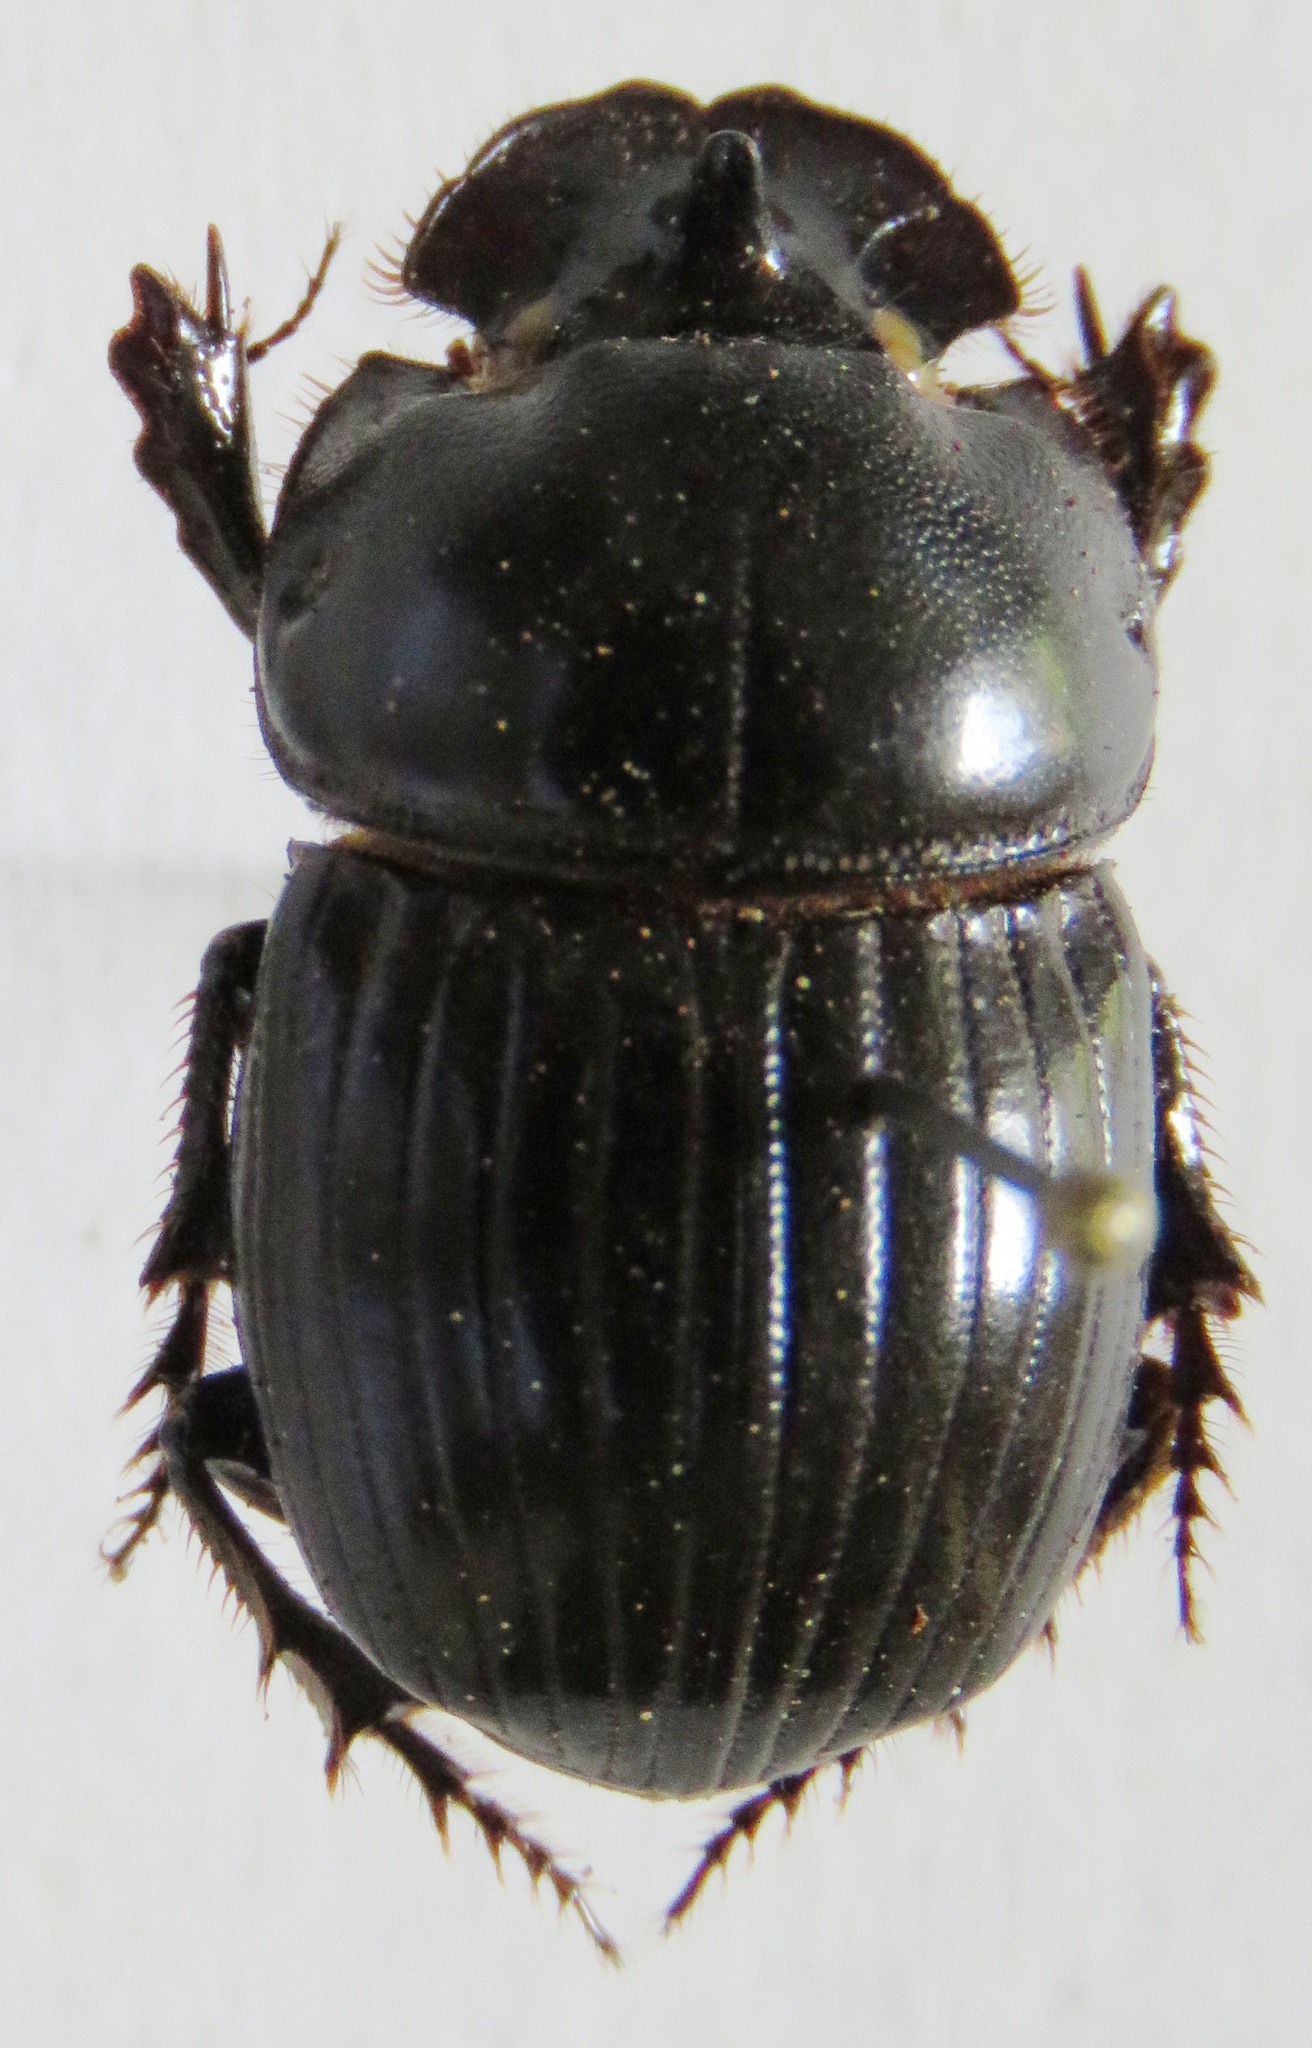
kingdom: Animalia
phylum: Arthropoda
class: Insecta
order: Coleoptera
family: Scarabaeidae
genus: Copris
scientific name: Copris lugubris
